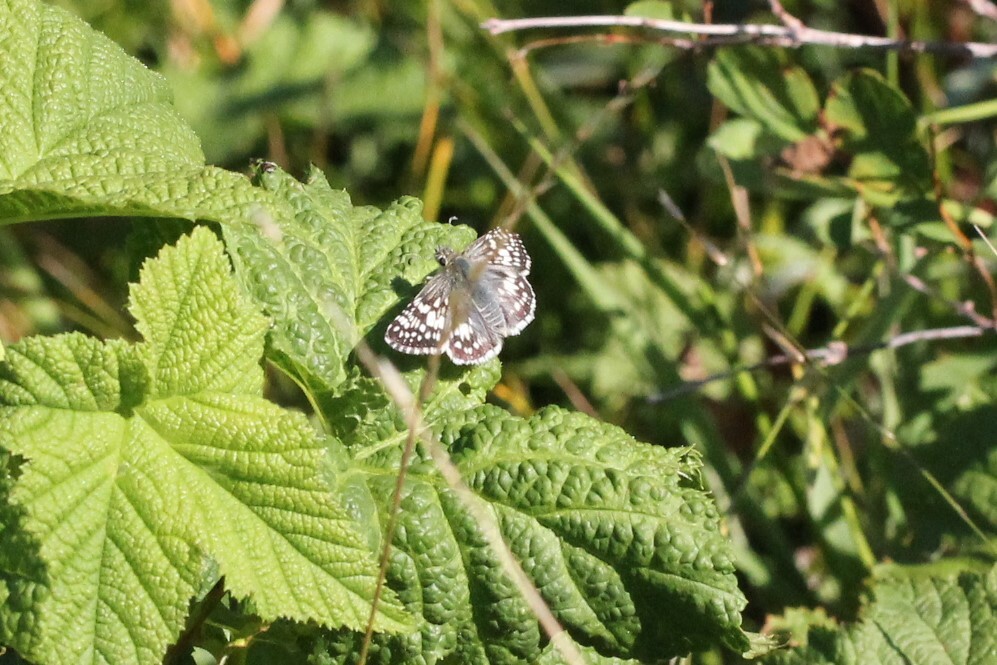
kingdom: Animalia
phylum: Arthropoda
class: Insecta
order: Lepidoptera
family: Hesperiidae
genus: Burnsius
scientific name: Burnsius communis
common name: Common checkered-skipper
